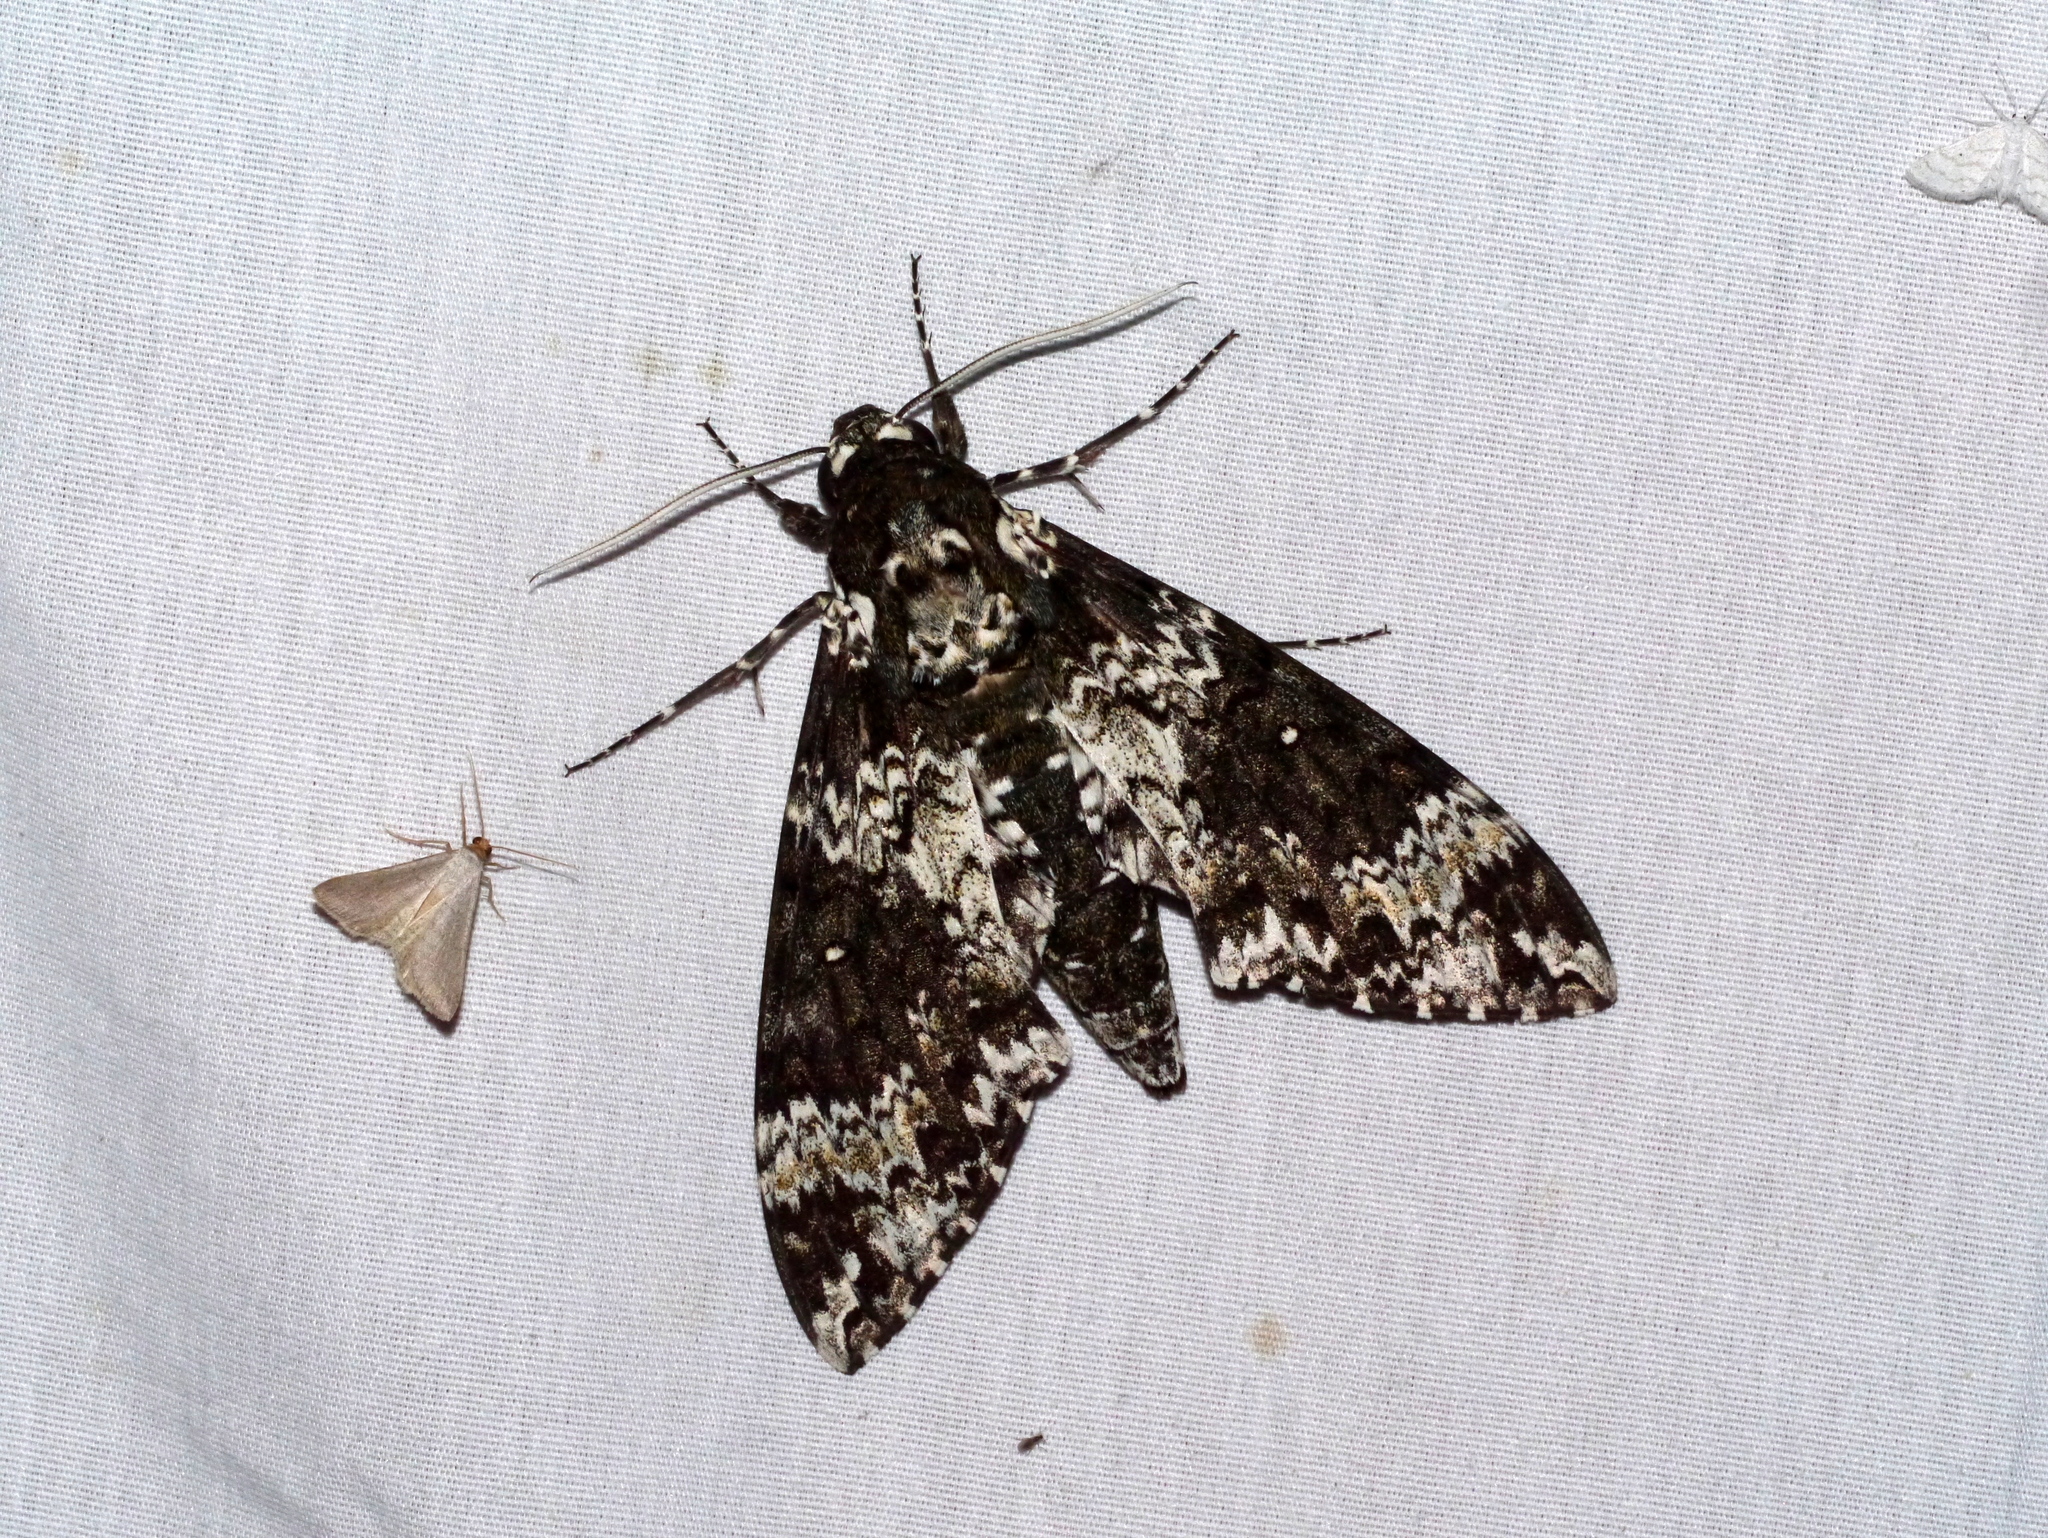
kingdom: Animalia
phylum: Arthropoda
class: Insecta
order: Lepidoptera
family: Sphingidae
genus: Manduca
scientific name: Manduca rustica
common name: Rustic sphinx
